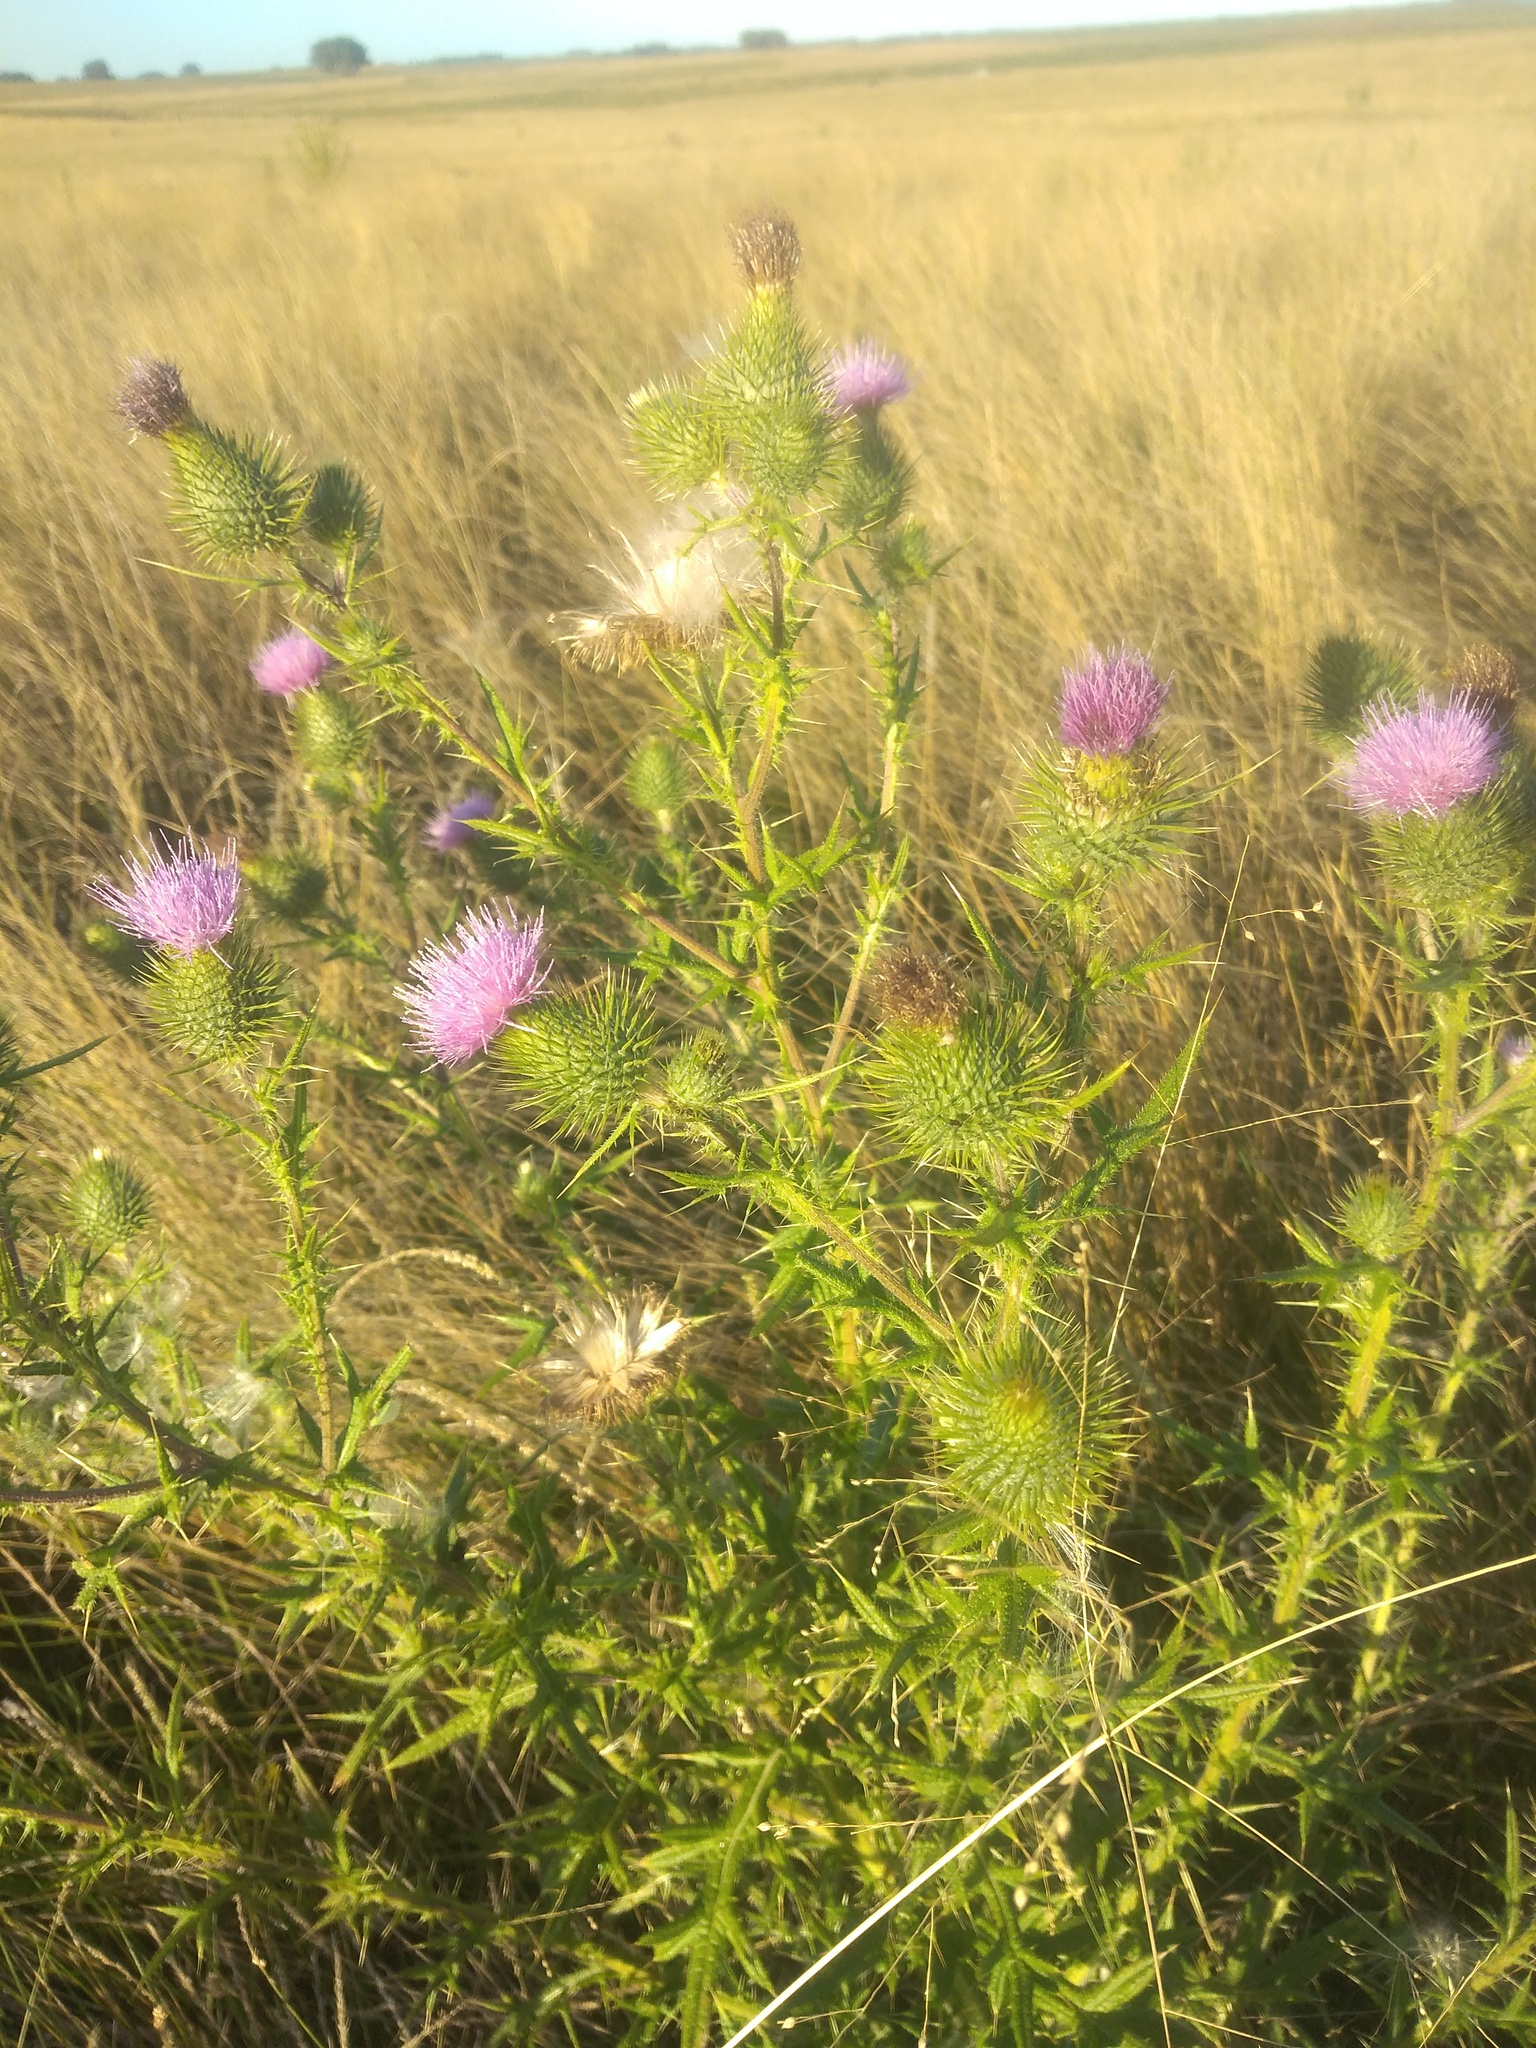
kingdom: Plantae
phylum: Tracheophyta
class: Magnoliopsida
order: Asterales
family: Asteraceae
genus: Cirsium
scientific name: Cirsium vulgare
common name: Bull thistle
